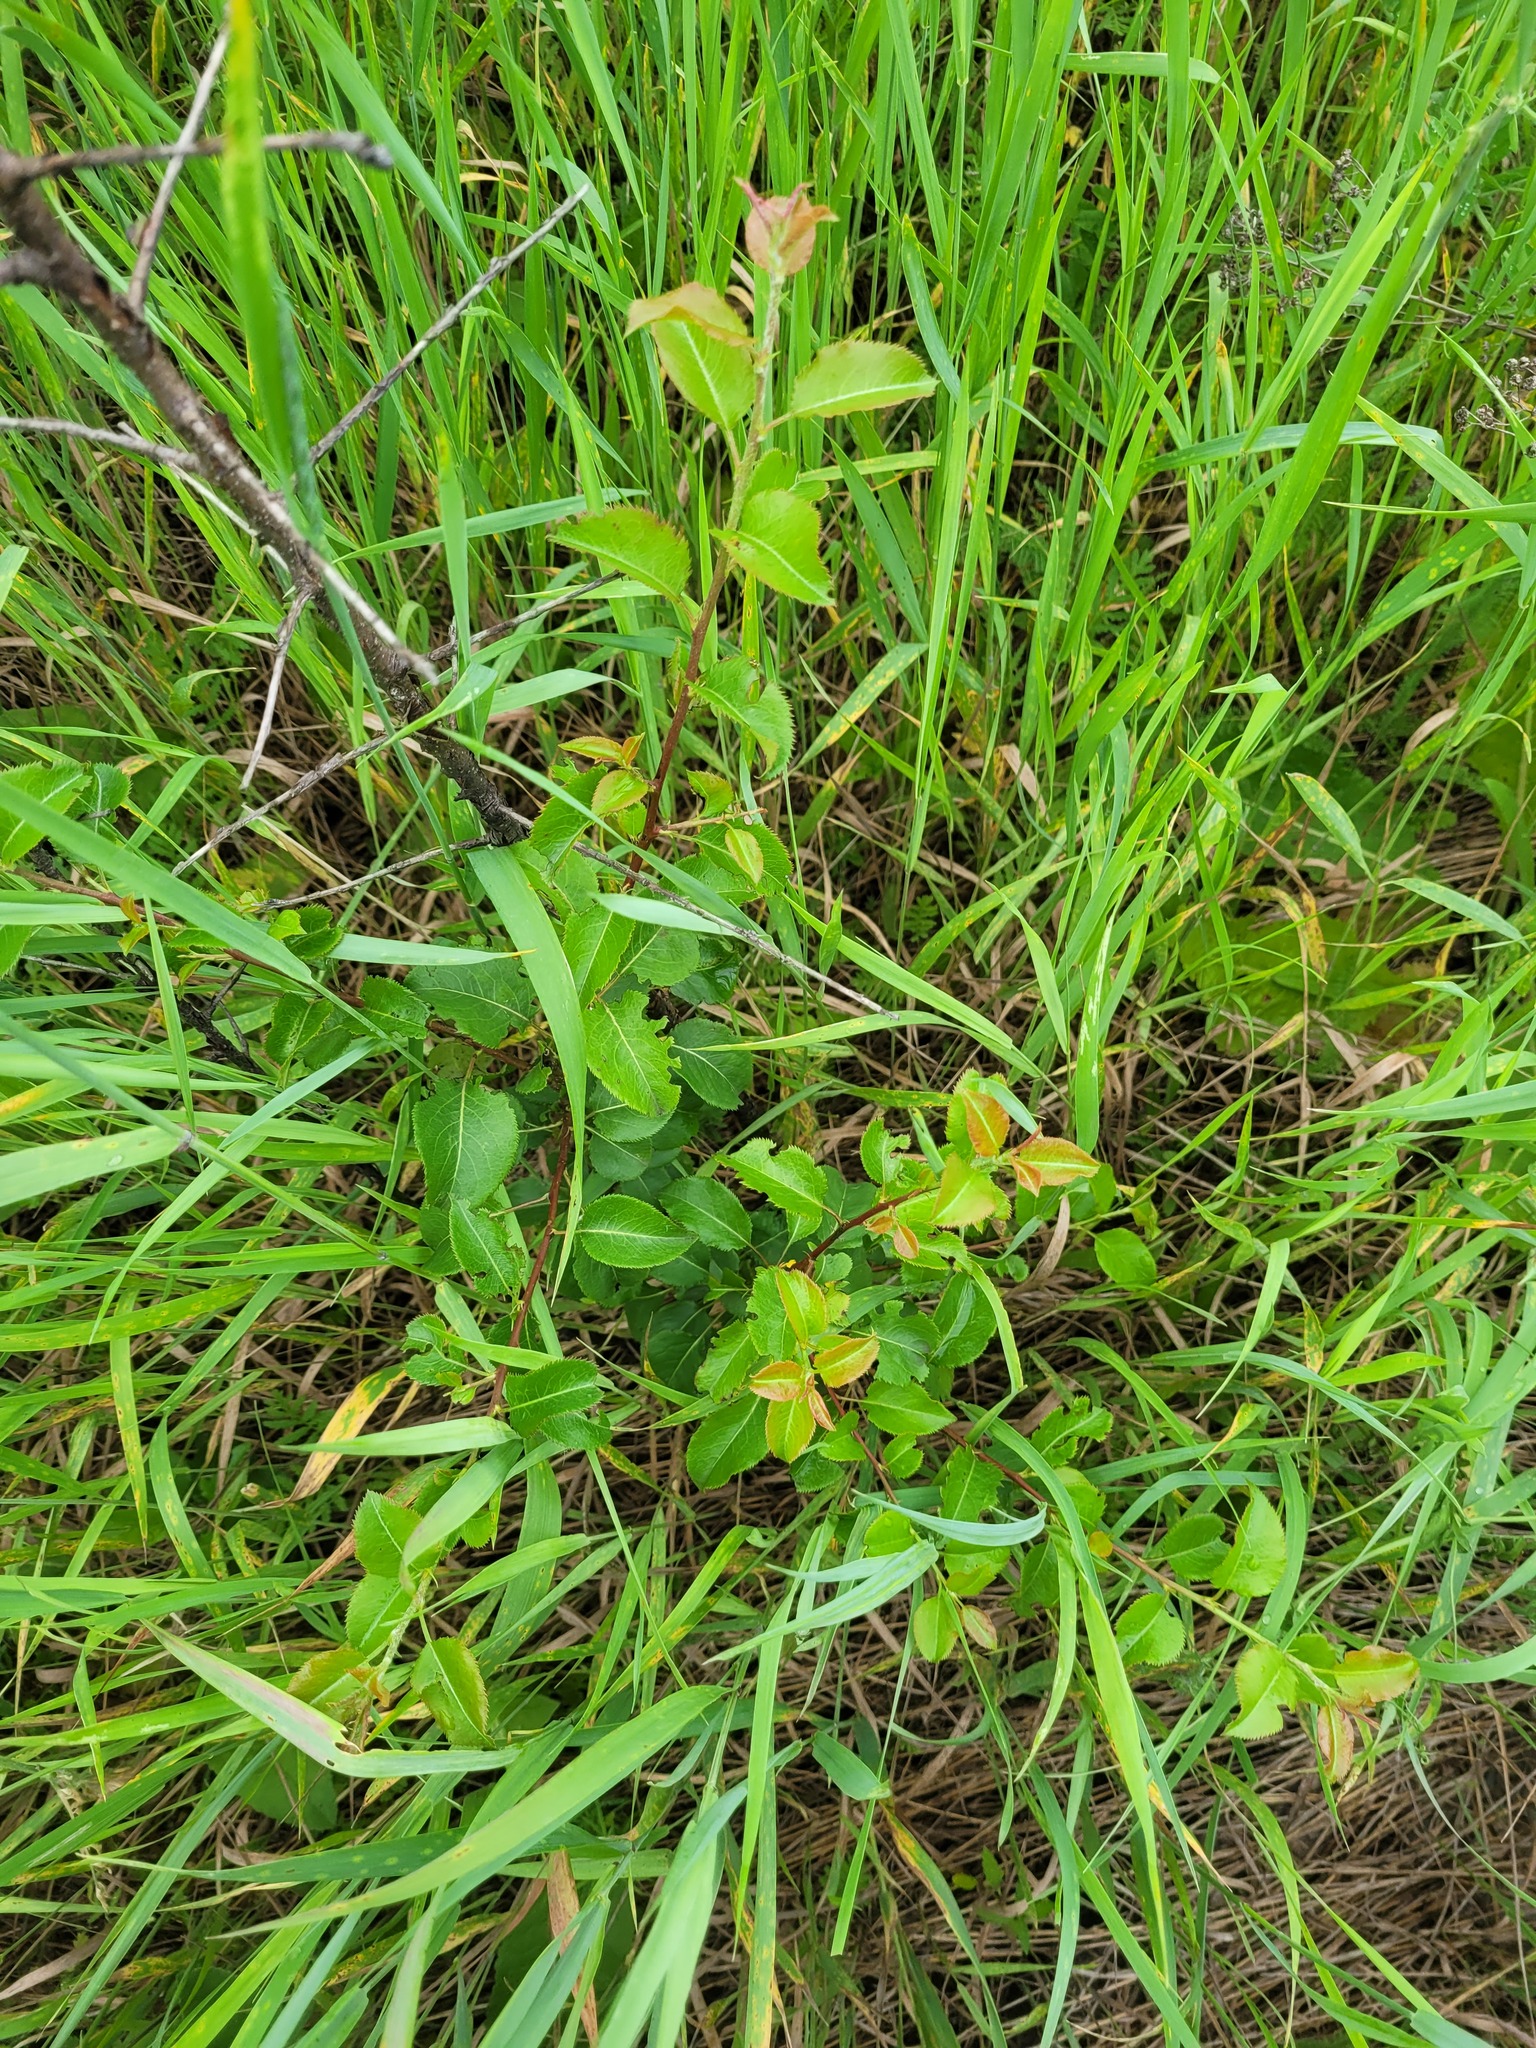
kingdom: Plantae
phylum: Tracheophyta
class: Magnoliopsida
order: Rosales
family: Rosaceae
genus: Pyrus
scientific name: Pyrus communis
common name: Pear
